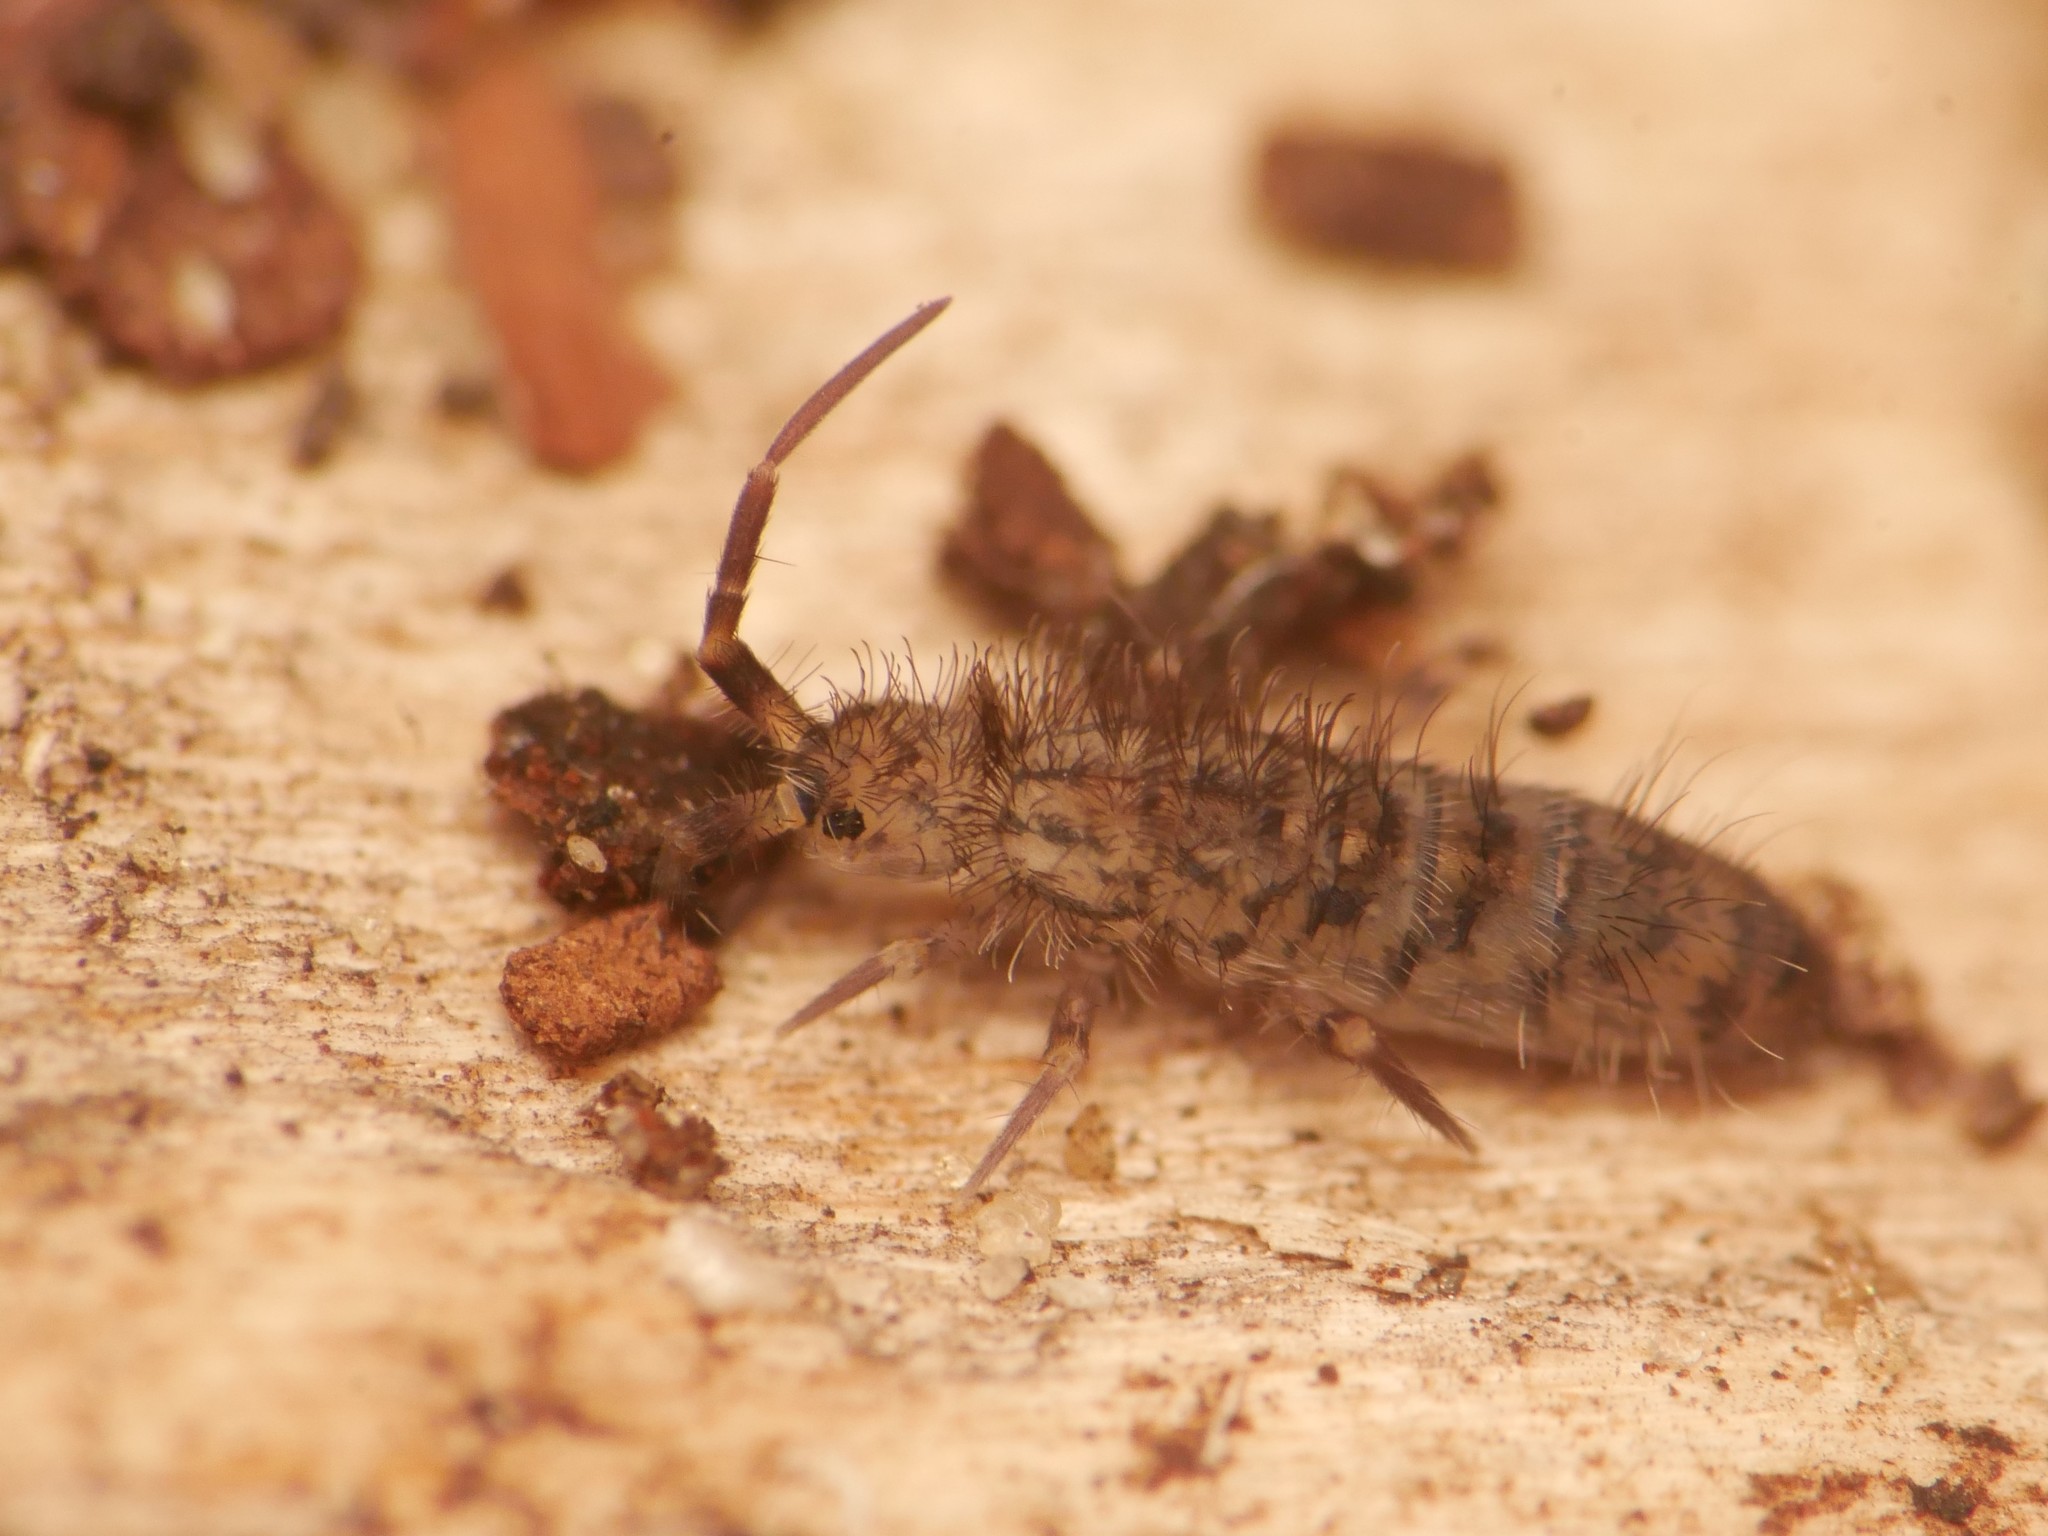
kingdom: Animalia
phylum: Arthropoda
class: Collembola
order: Entomobryomorpha
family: Orchesellidae
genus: Orchesella
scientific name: Orchesella villosa
